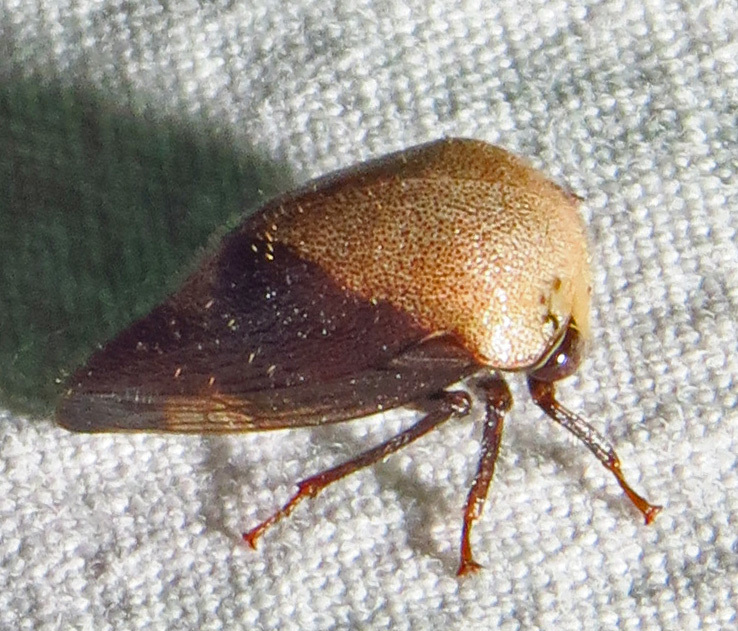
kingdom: Animalia
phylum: Arthropoda
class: Insecta
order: Hemiptera
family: Membracidae
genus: Carynota
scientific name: Carynota mera
